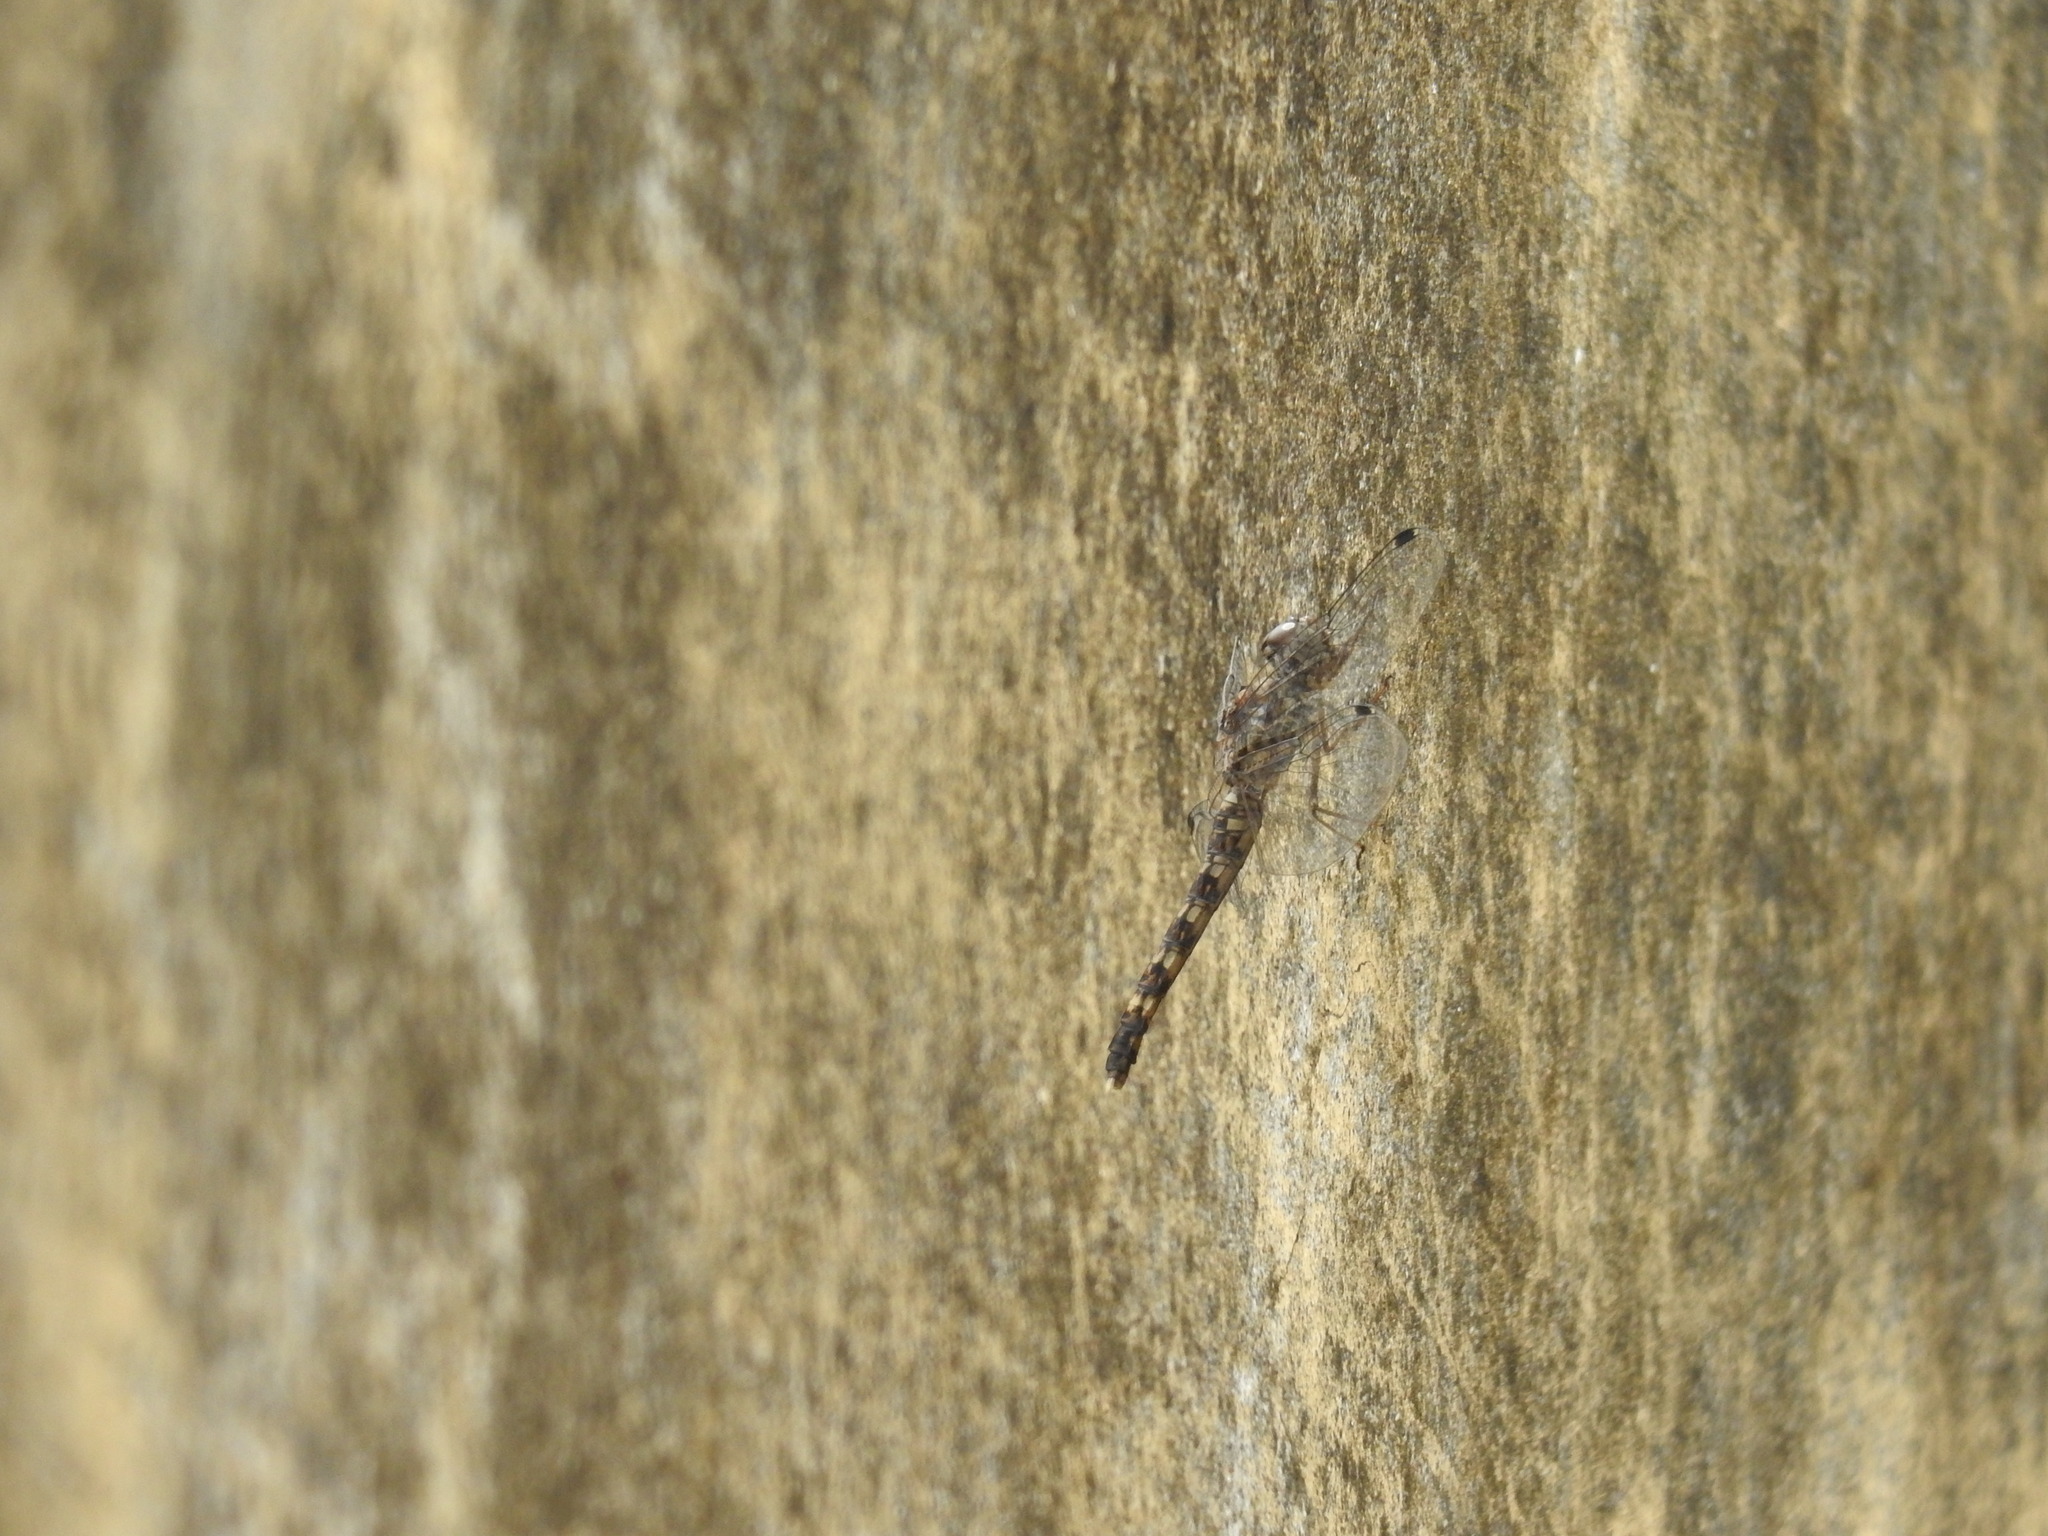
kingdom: Animalia
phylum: Arthropoda
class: Insecta
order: Odonata
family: Libellulidae
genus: Bradinopyga
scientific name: Bradinopyga geminata
